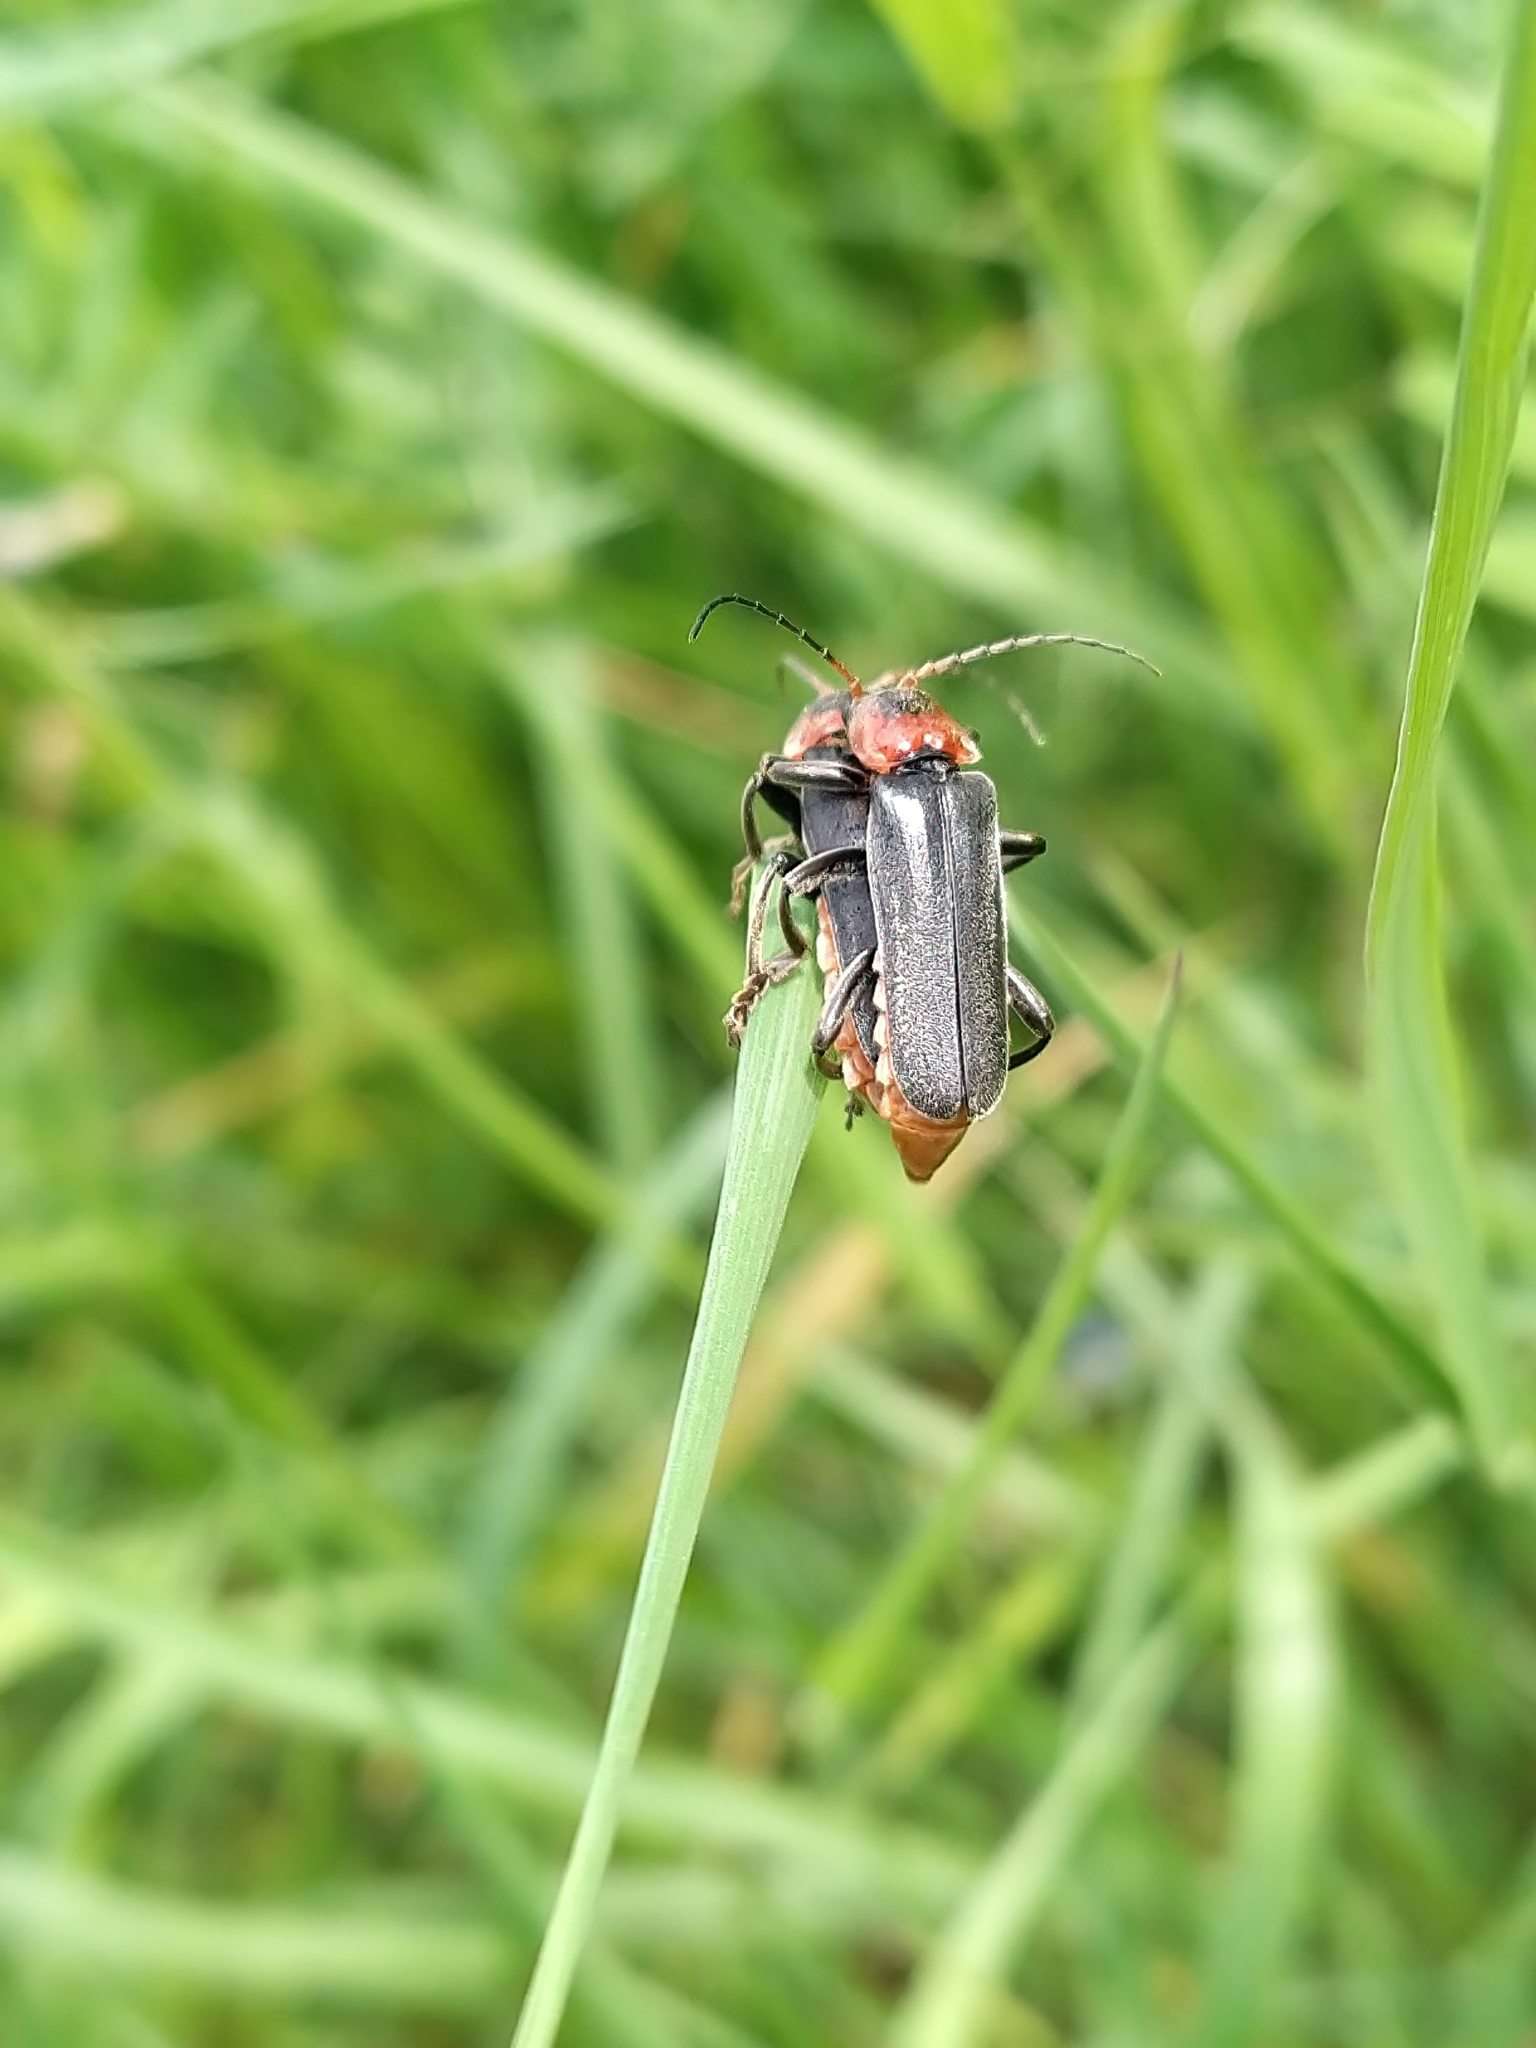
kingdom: Animalia
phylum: Arthropoda
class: Insecta
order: Coleoptera
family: Cantharidae
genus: Cantharis
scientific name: Cantharis fusca
